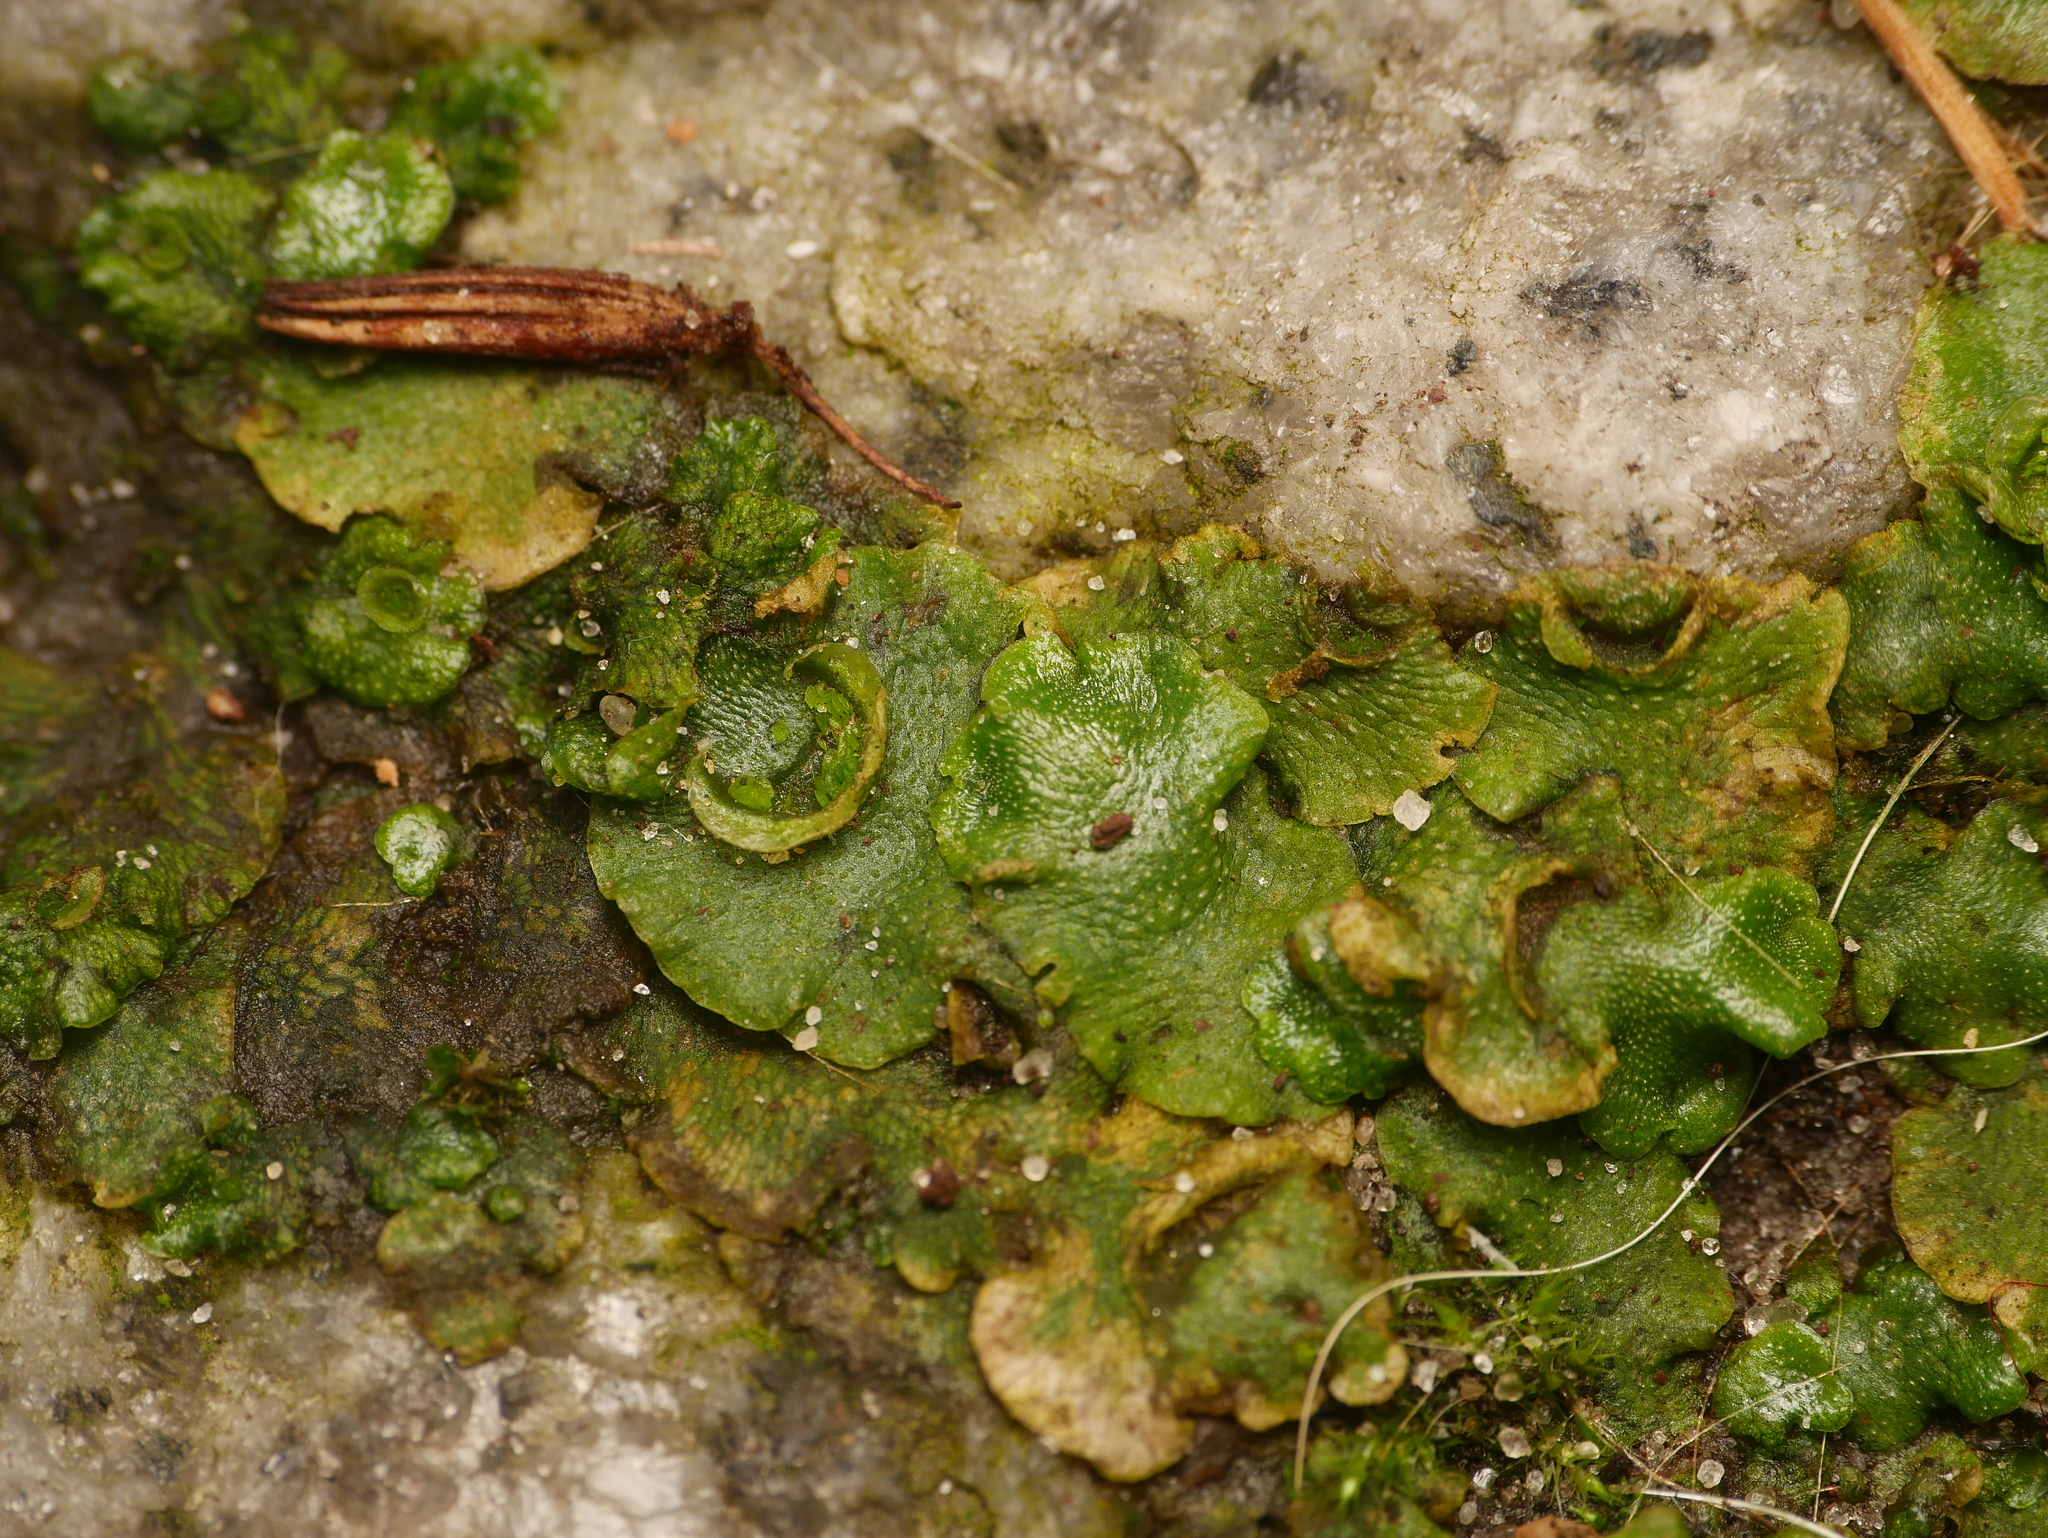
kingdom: Plantae
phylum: Marchantiophyta
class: Marchantiopsida
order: Lunulariales
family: Lunulariaceae
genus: Lunularia
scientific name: Lunularia cruciata
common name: Crescent-cup liverwort
